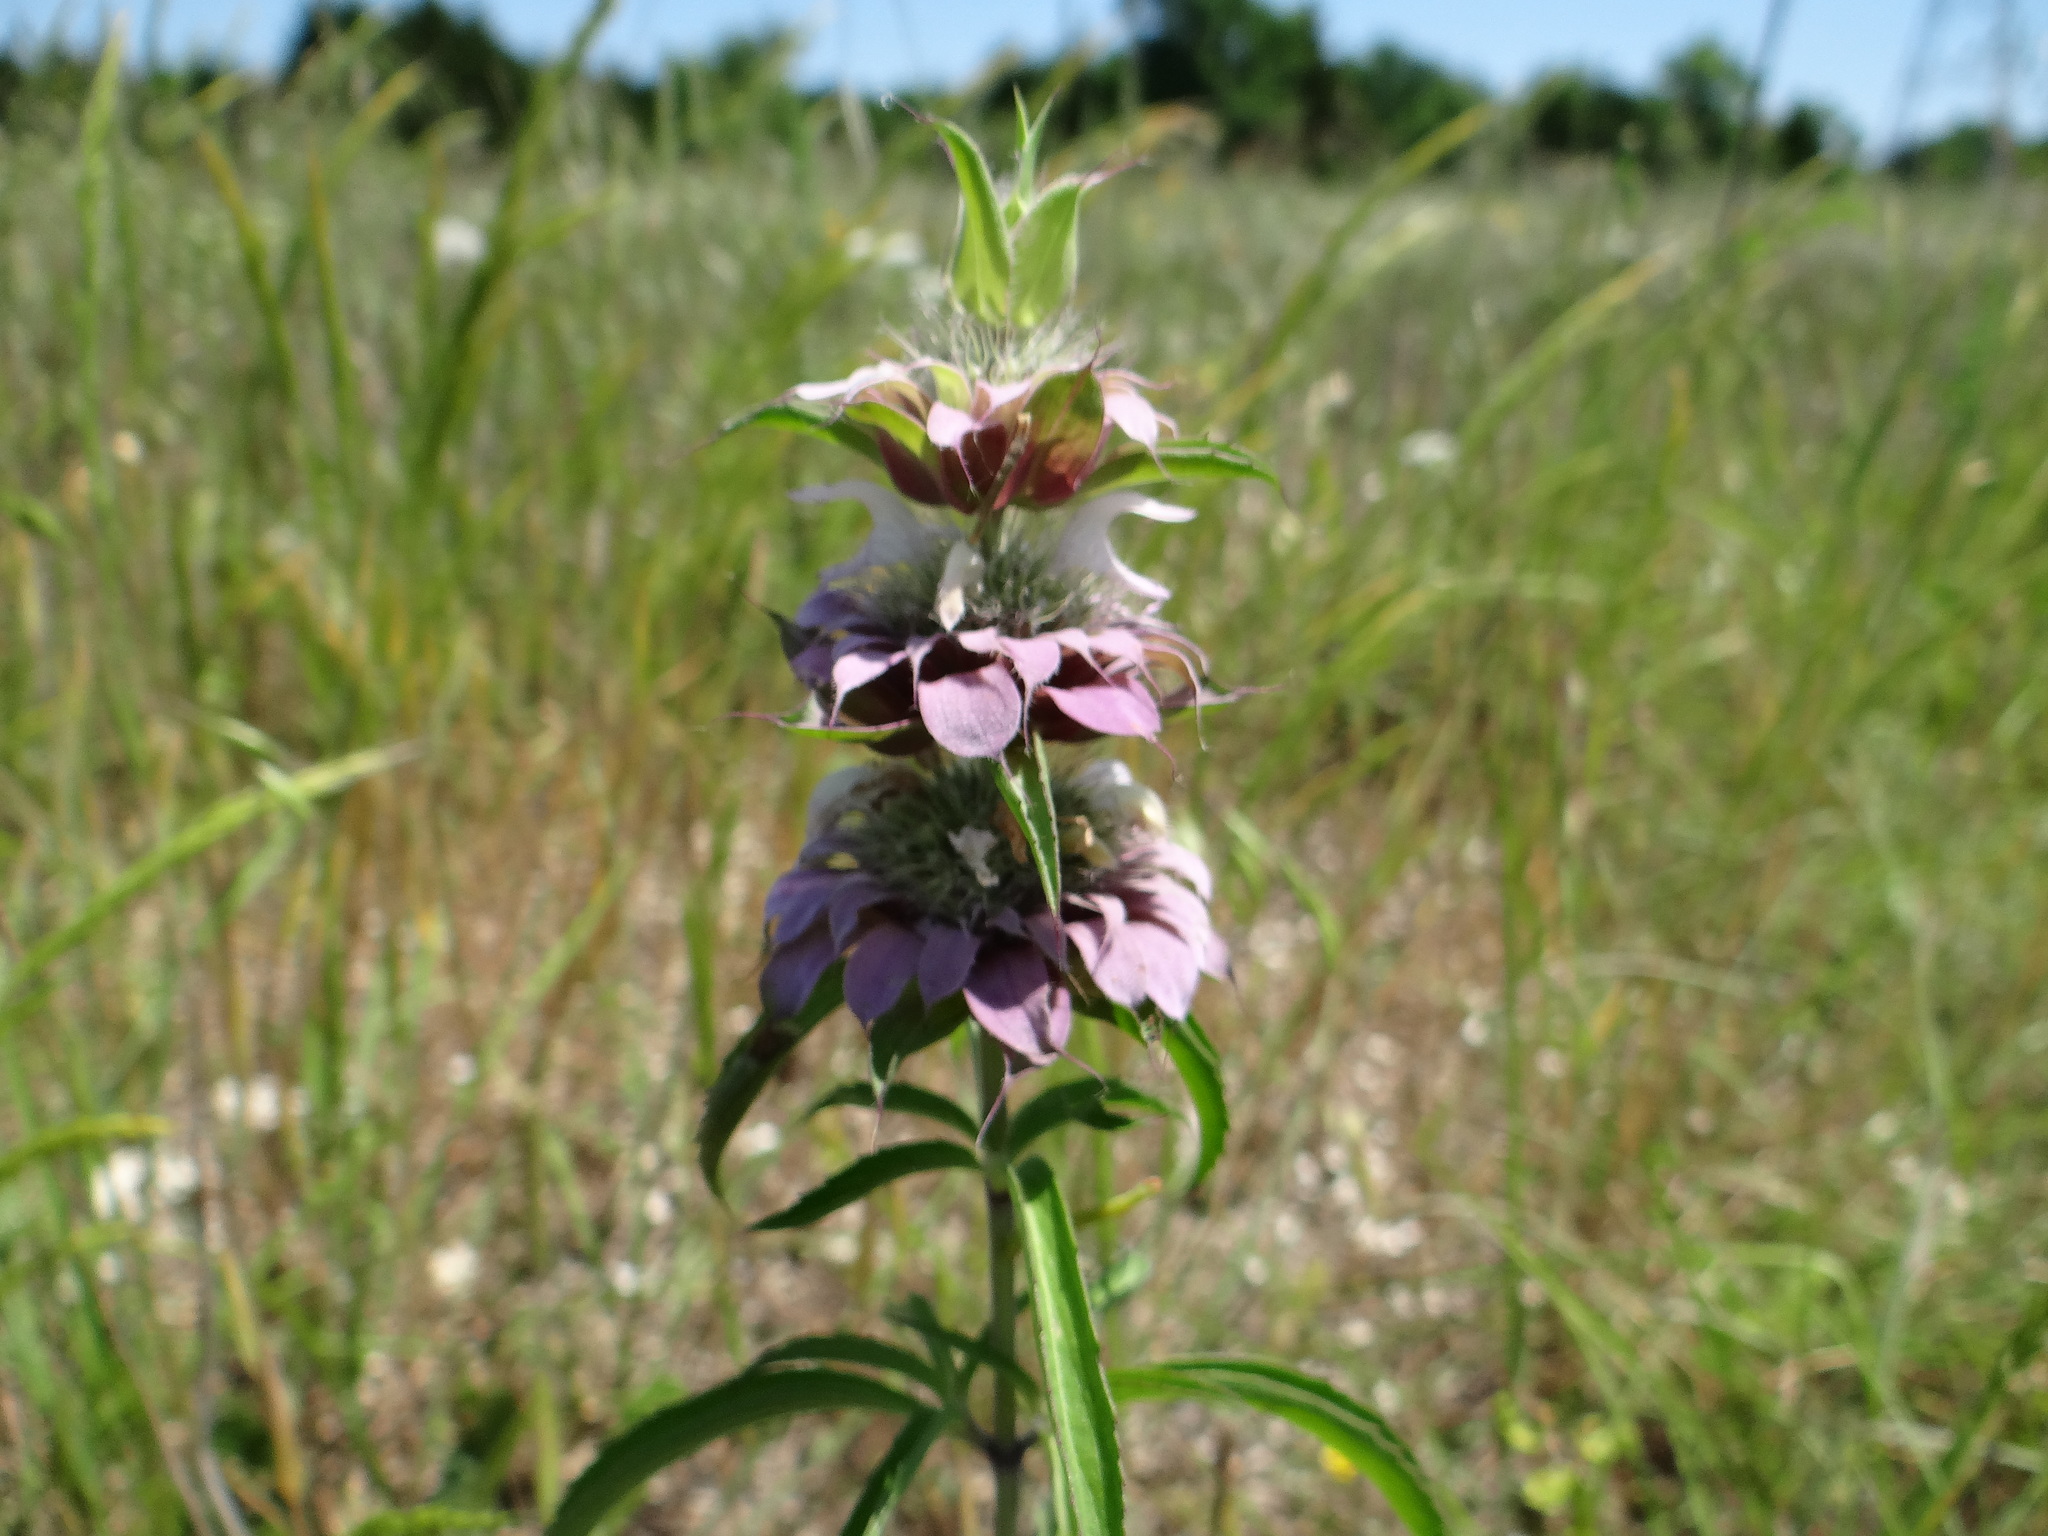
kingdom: Plantae
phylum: Tracheophyta
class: Magnoliopsida
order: Lamiales
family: Lamiaceae
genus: Monarda
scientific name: Monarda citriodora
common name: Lemon beebalm
